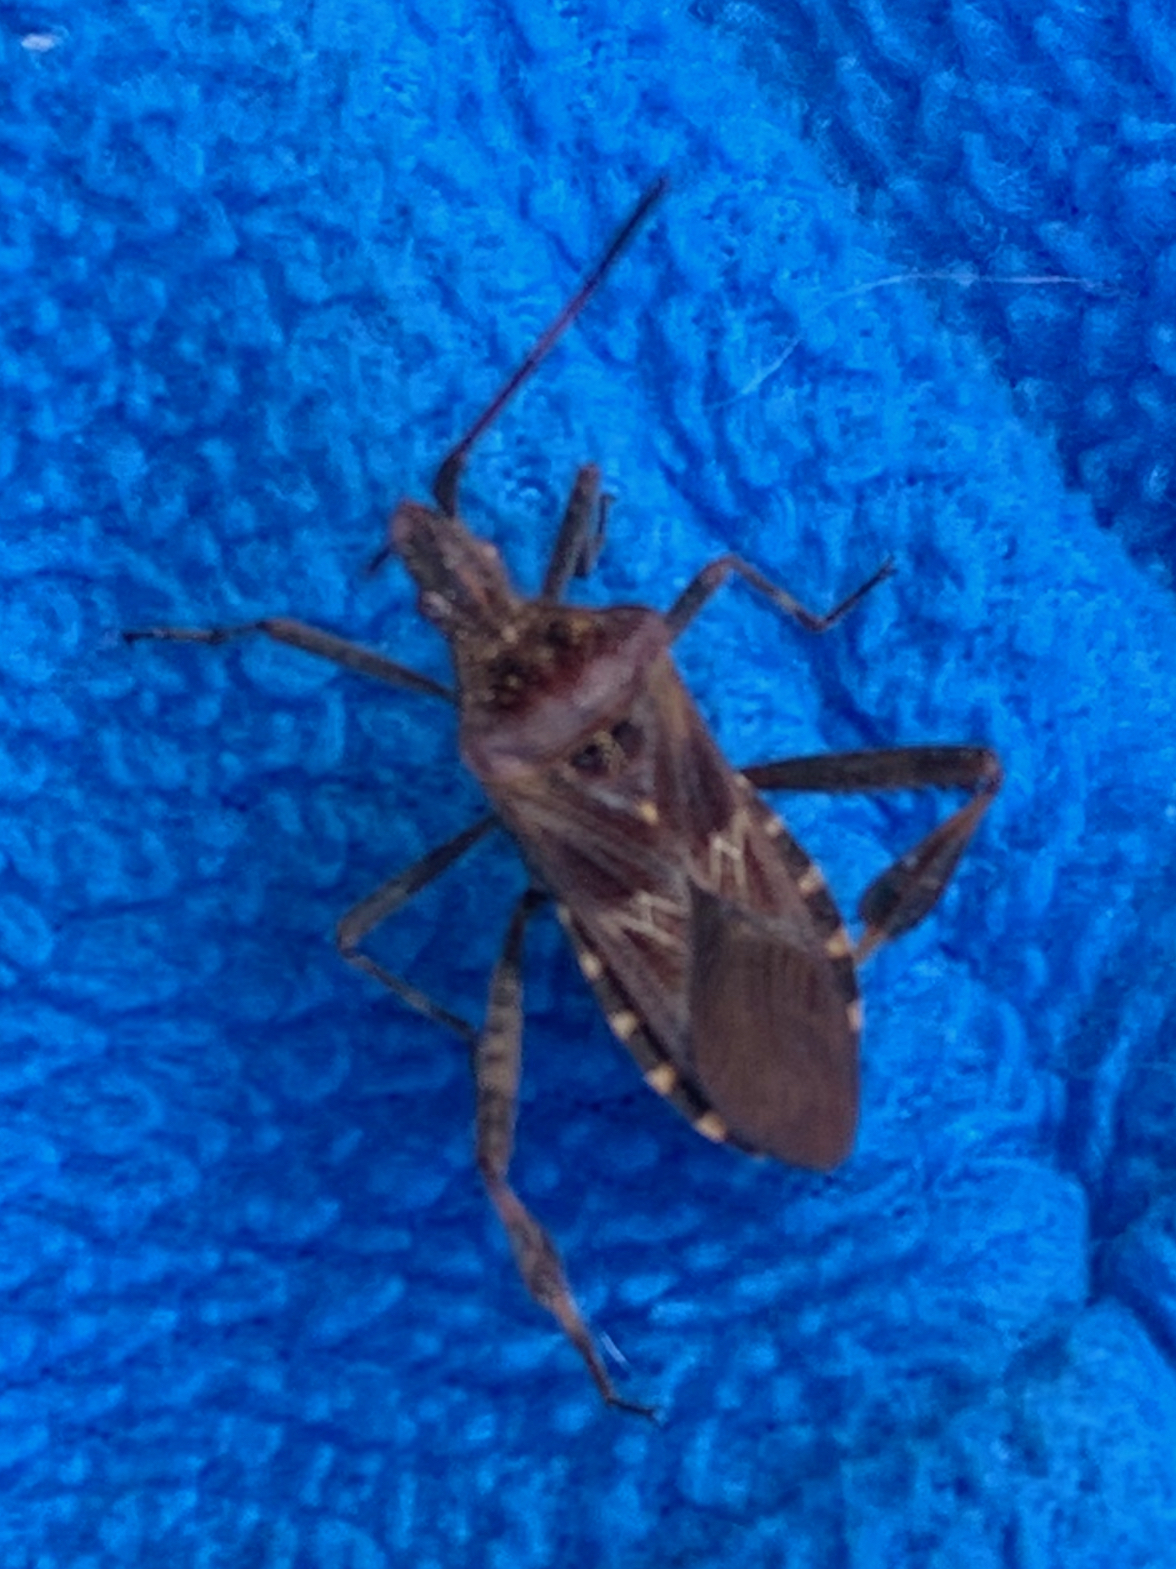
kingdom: Animalia
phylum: Arthropoda
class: Insecta
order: Hemiptera
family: Coreidae
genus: Leptoglossus
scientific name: Leptoglossus occidentalis
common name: Western conifer-seed bug
